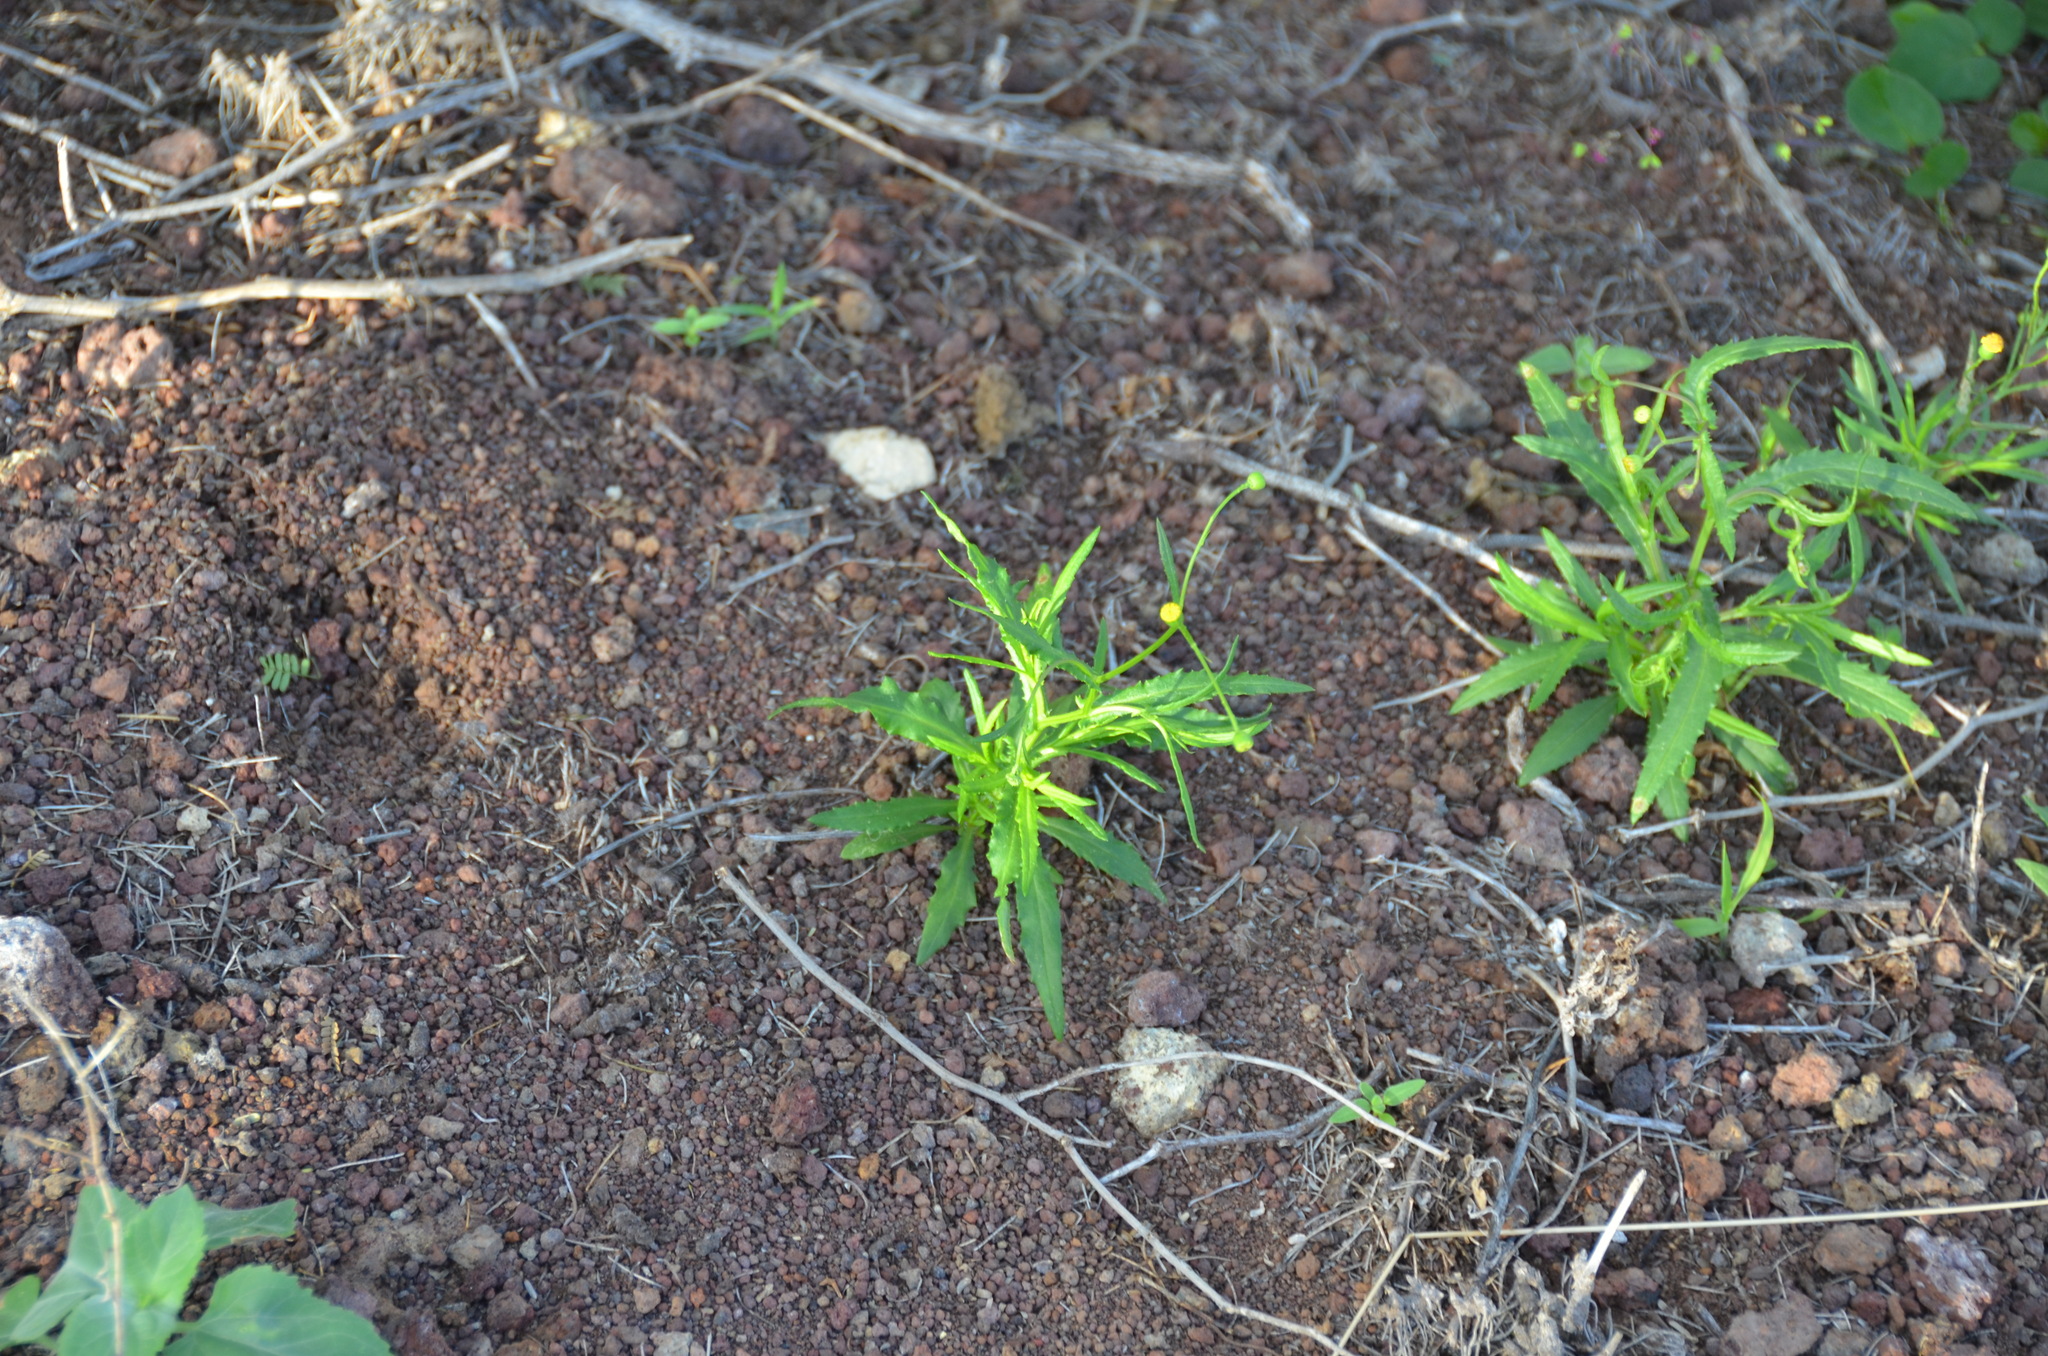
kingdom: Plantae
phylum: Tracheophyta
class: Magnoliopsida
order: Asterales
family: Asteraceae
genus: Senecio
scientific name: Senecio madagascariensis
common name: Madagascar ragwort
